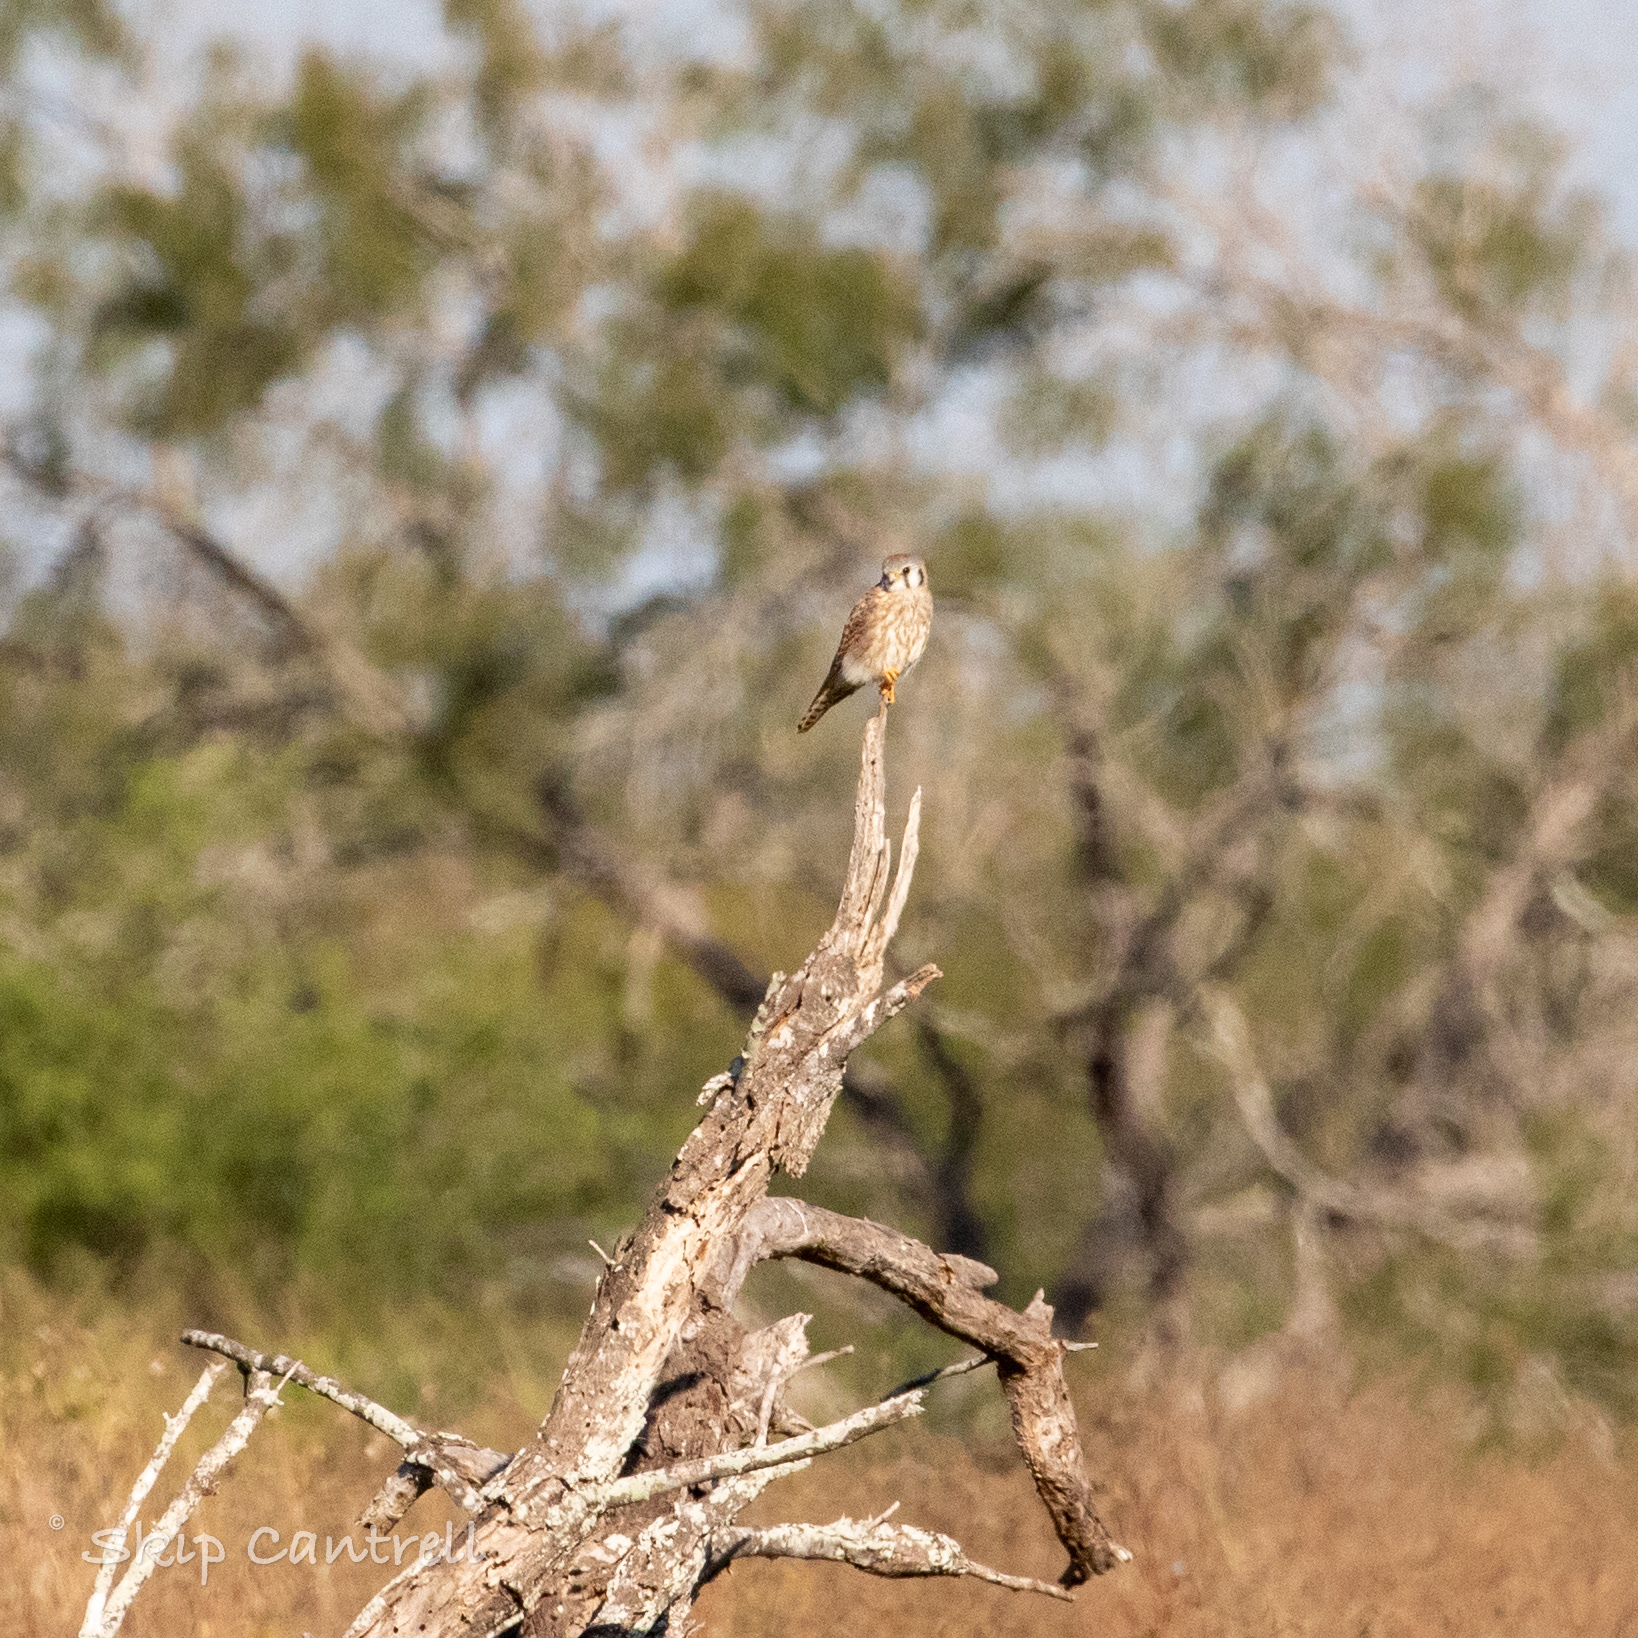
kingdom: Animalia
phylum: Chordata
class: Aves
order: Falconiformes
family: Falconidae
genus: Falco
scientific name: Falco sparverius
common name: American kestrel
